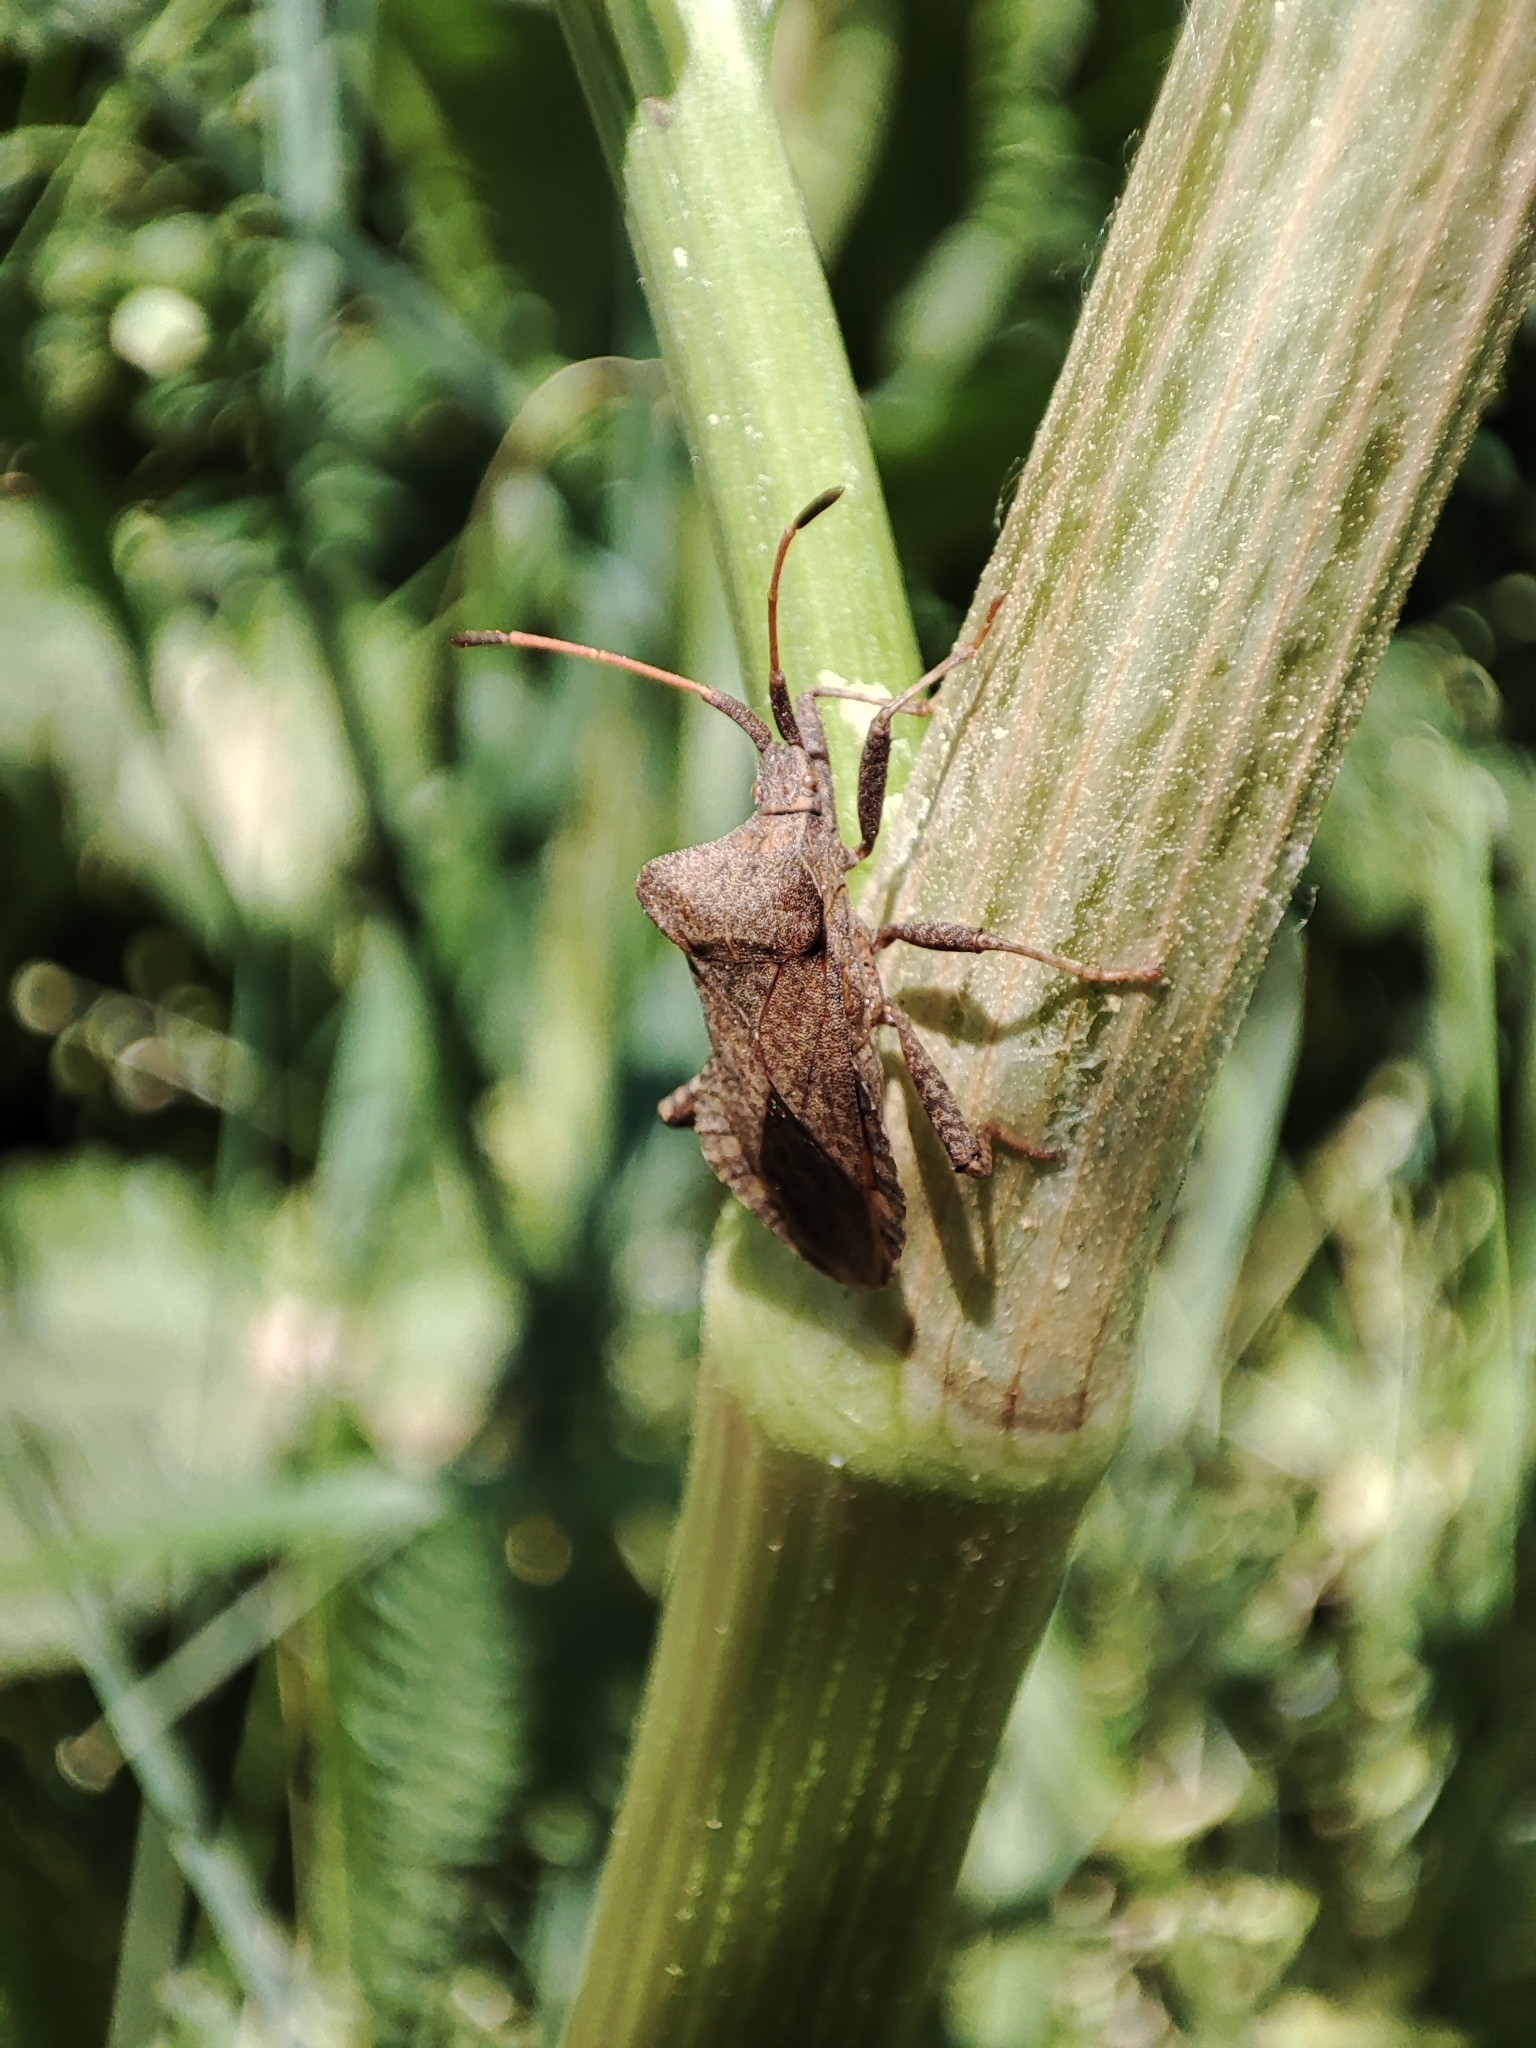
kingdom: Animalia
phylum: Arthropoda
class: Insecta
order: Hemiptera
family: Coreidae
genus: Coreus
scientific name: Coreus marginatus
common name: Dock bug
